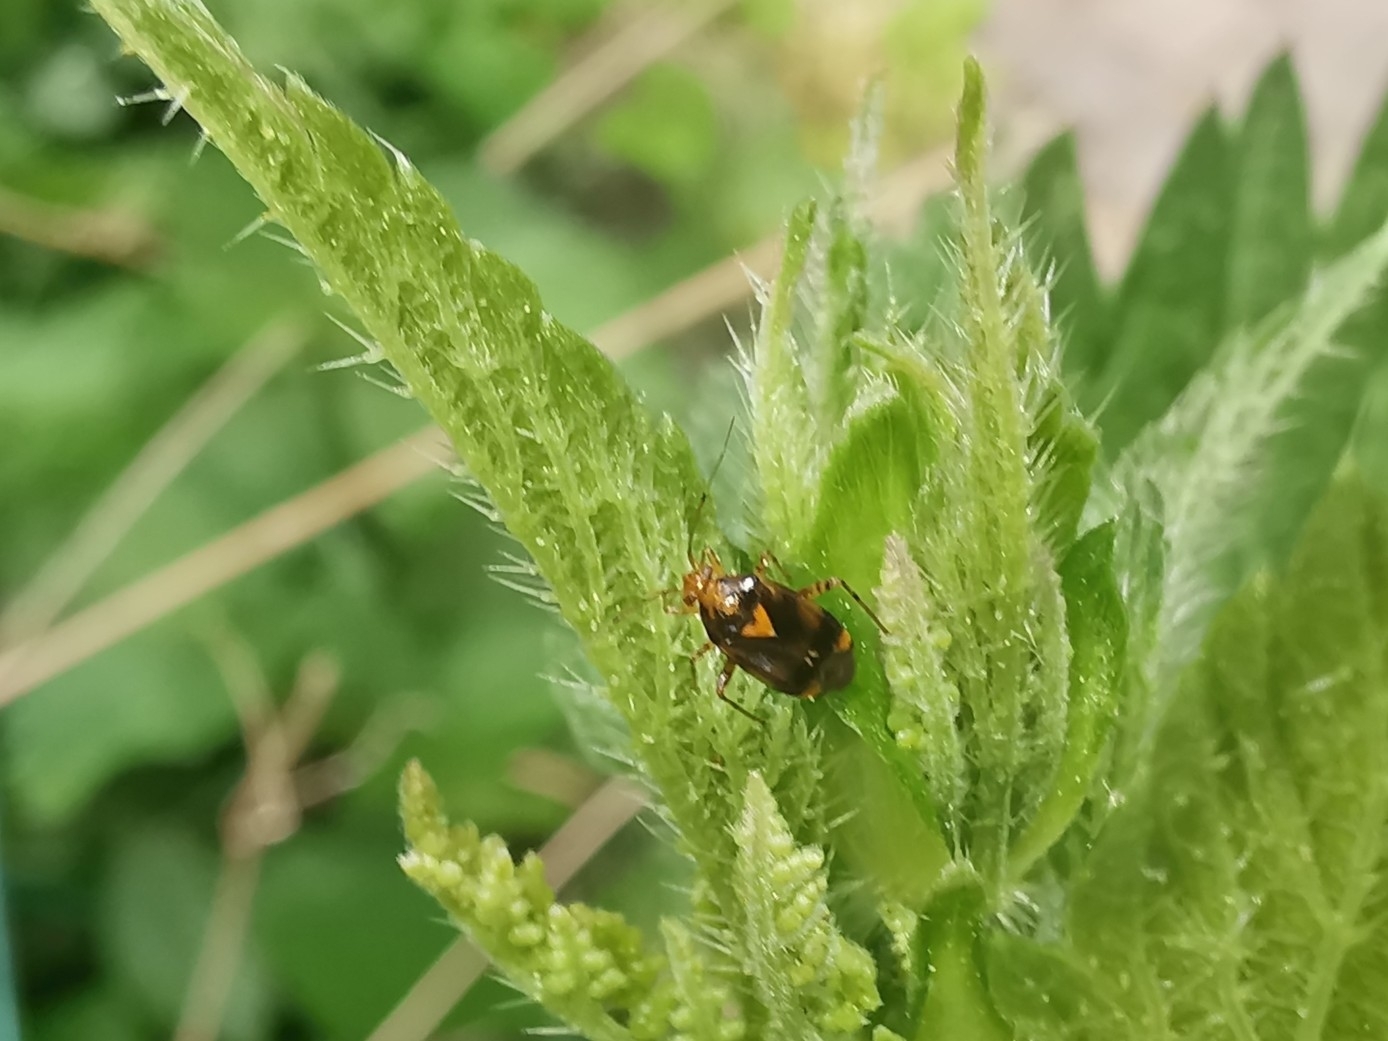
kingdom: Animalia
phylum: Arthropoda
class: Insecta
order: Hemiptera
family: Miridae
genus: Liocoris
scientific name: Liocoris tripustulatus
